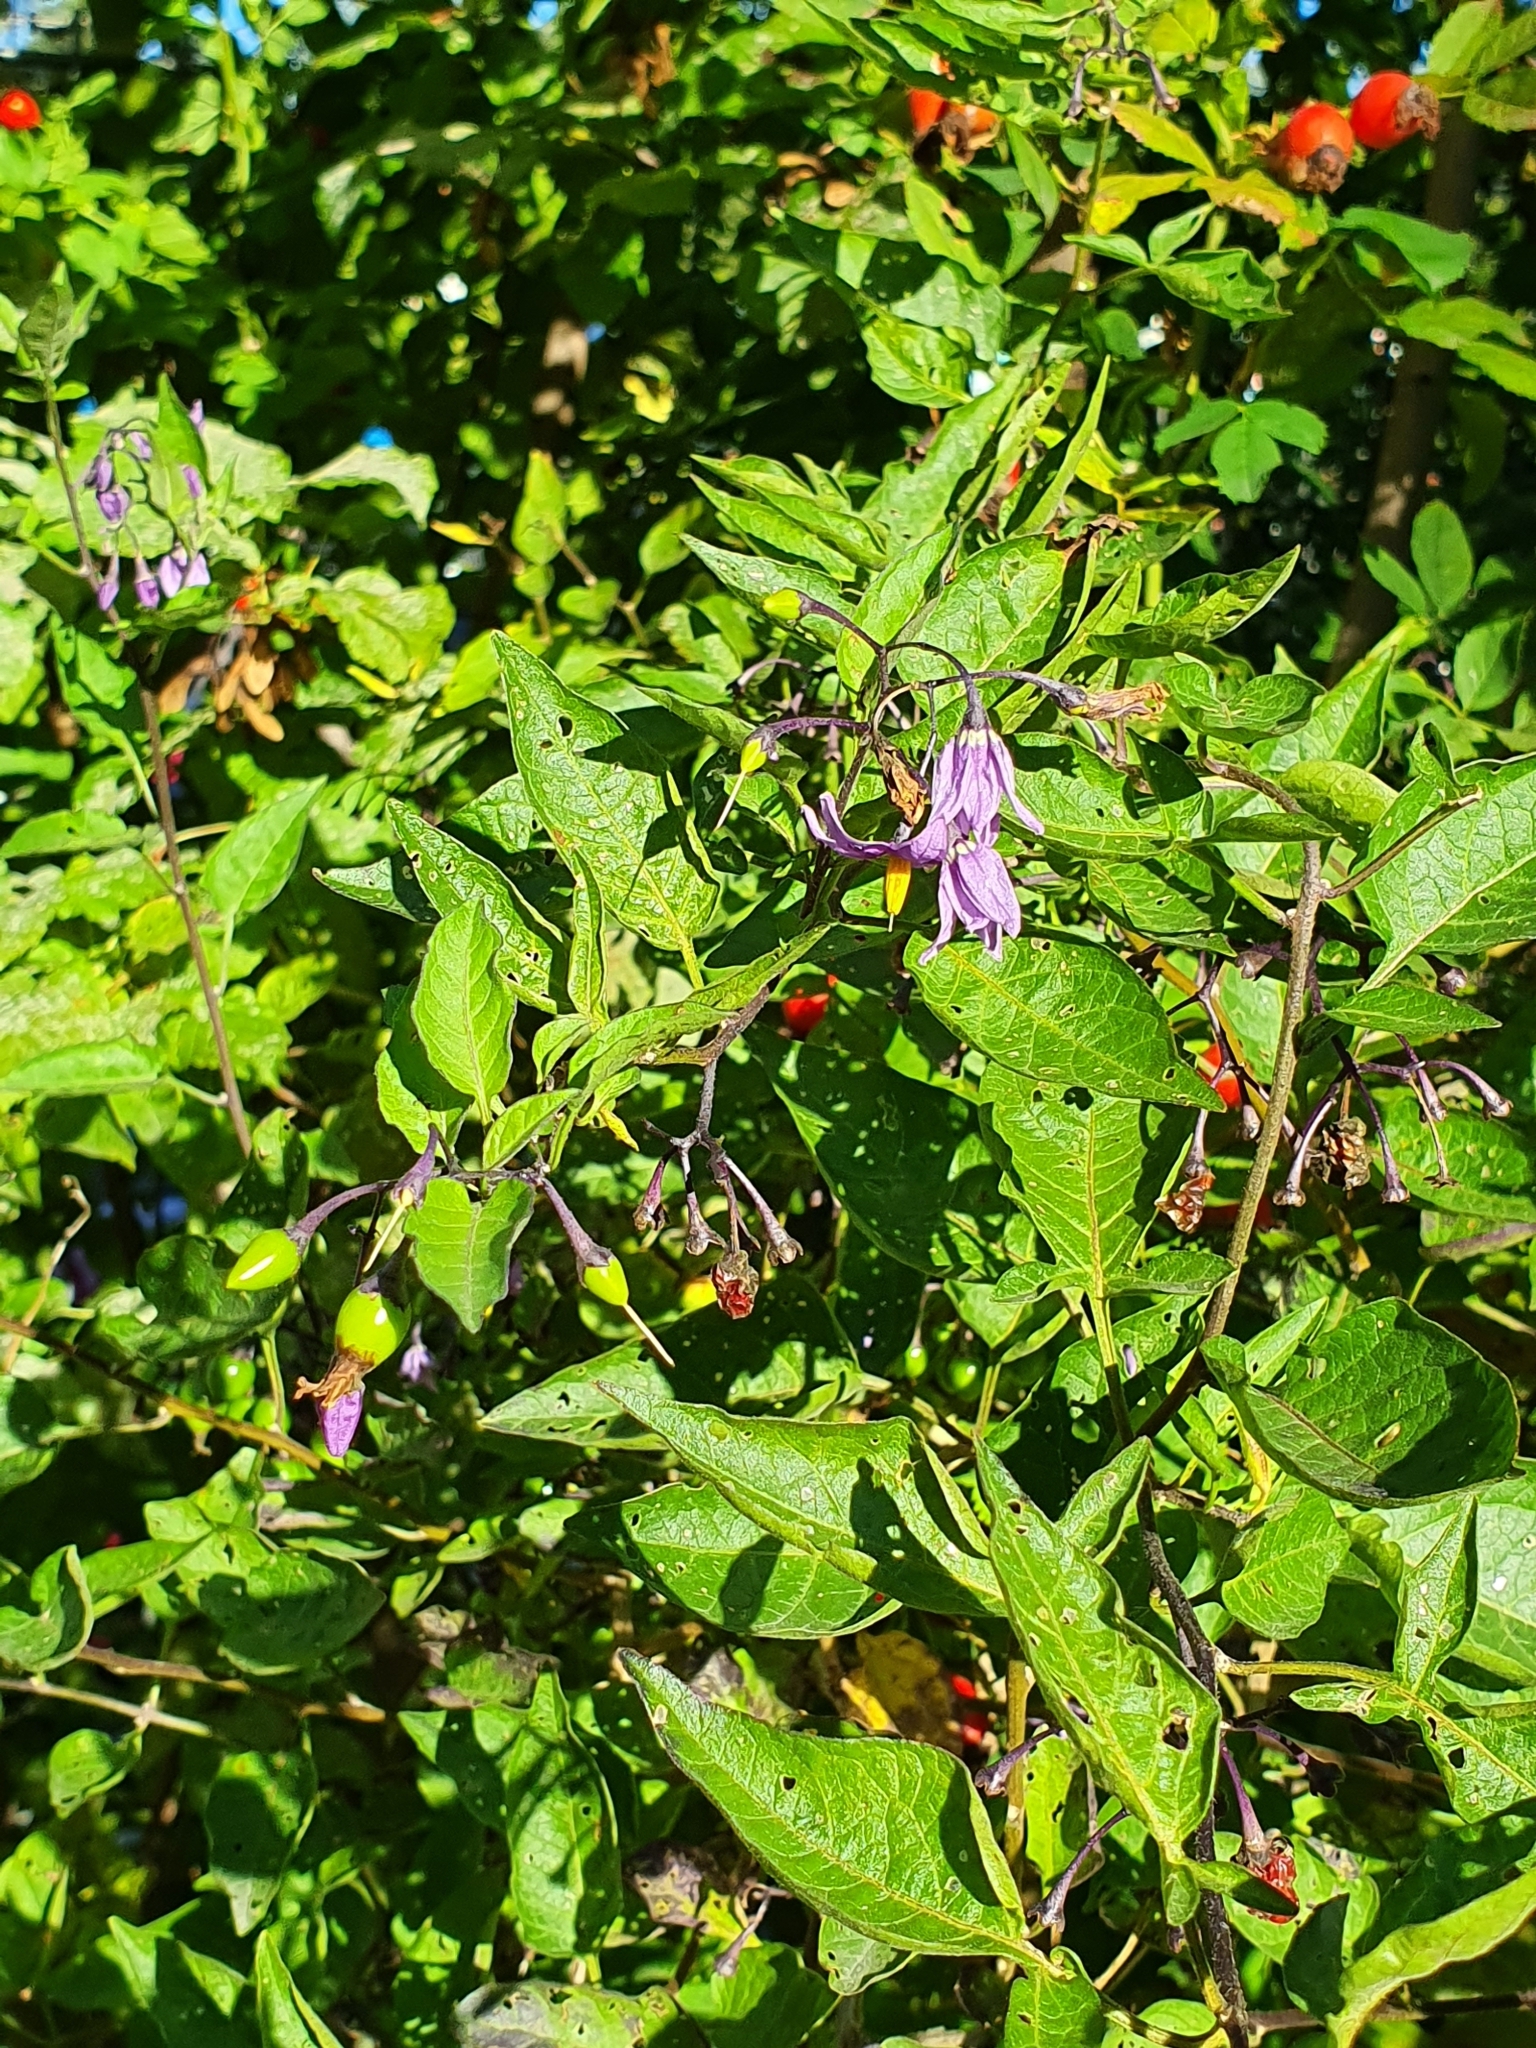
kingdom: Plantae
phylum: Tracheophyta
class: Magnoliopsida
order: Solanales
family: Solanaceae
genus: Solanum
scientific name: Solanum dulcamara
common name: Climbing nightshade
